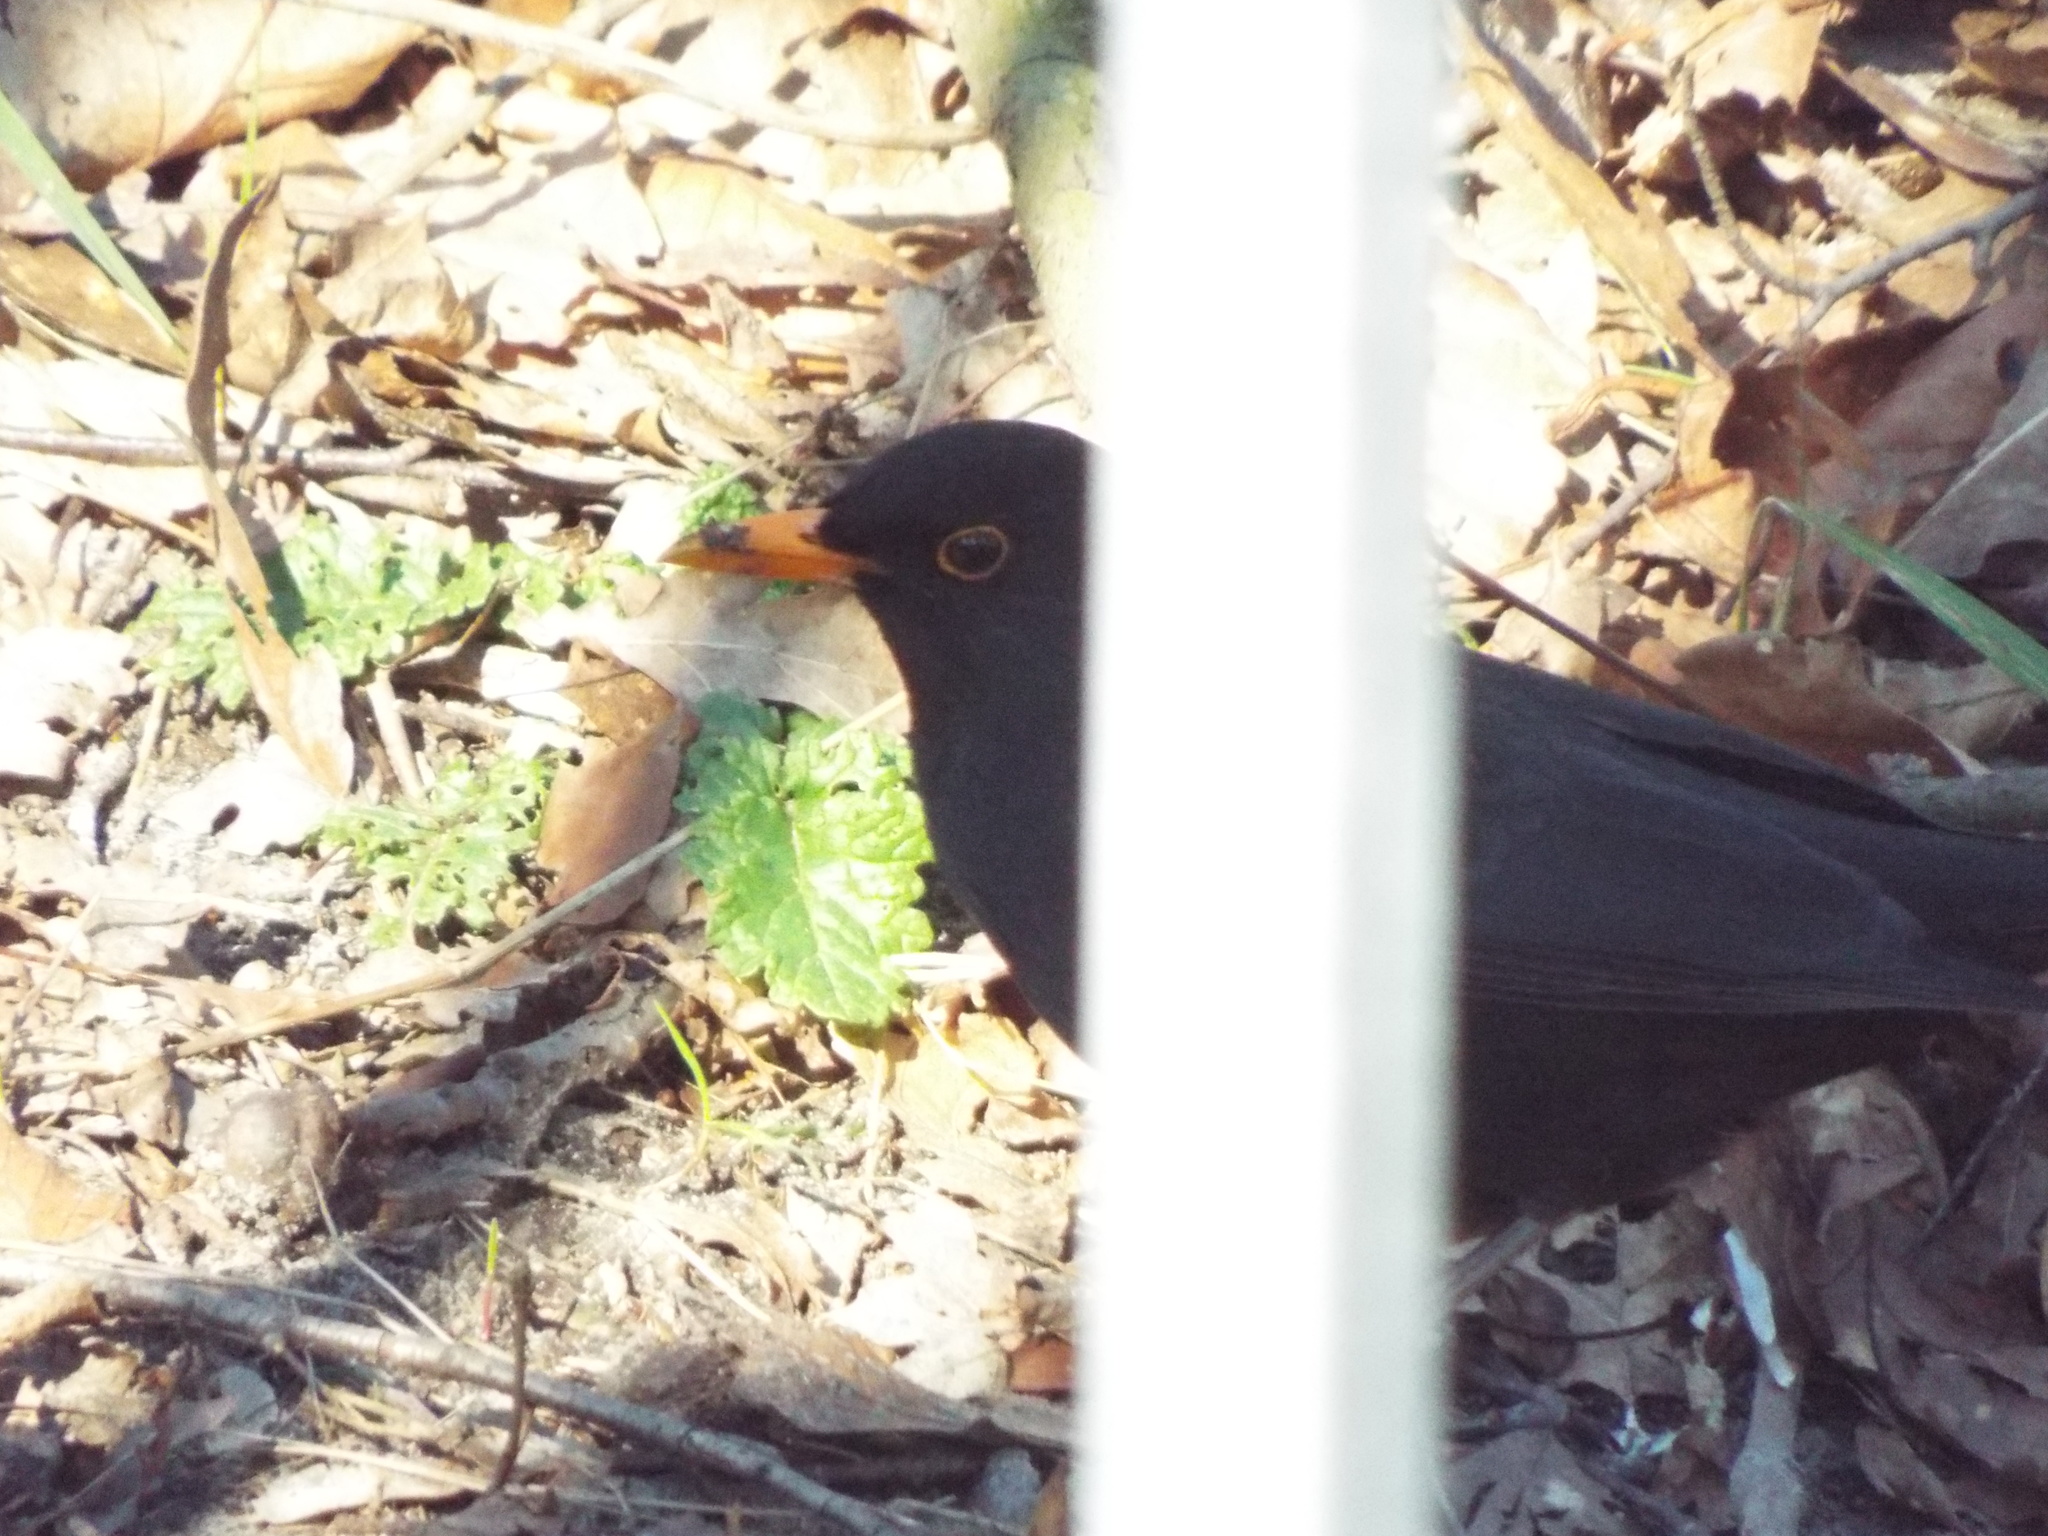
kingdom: Animalia
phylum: Chordata
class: Aves
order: Passeriformes
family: Turdidae
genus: Turdus
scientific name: Turdus merula
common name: Common blackbird
